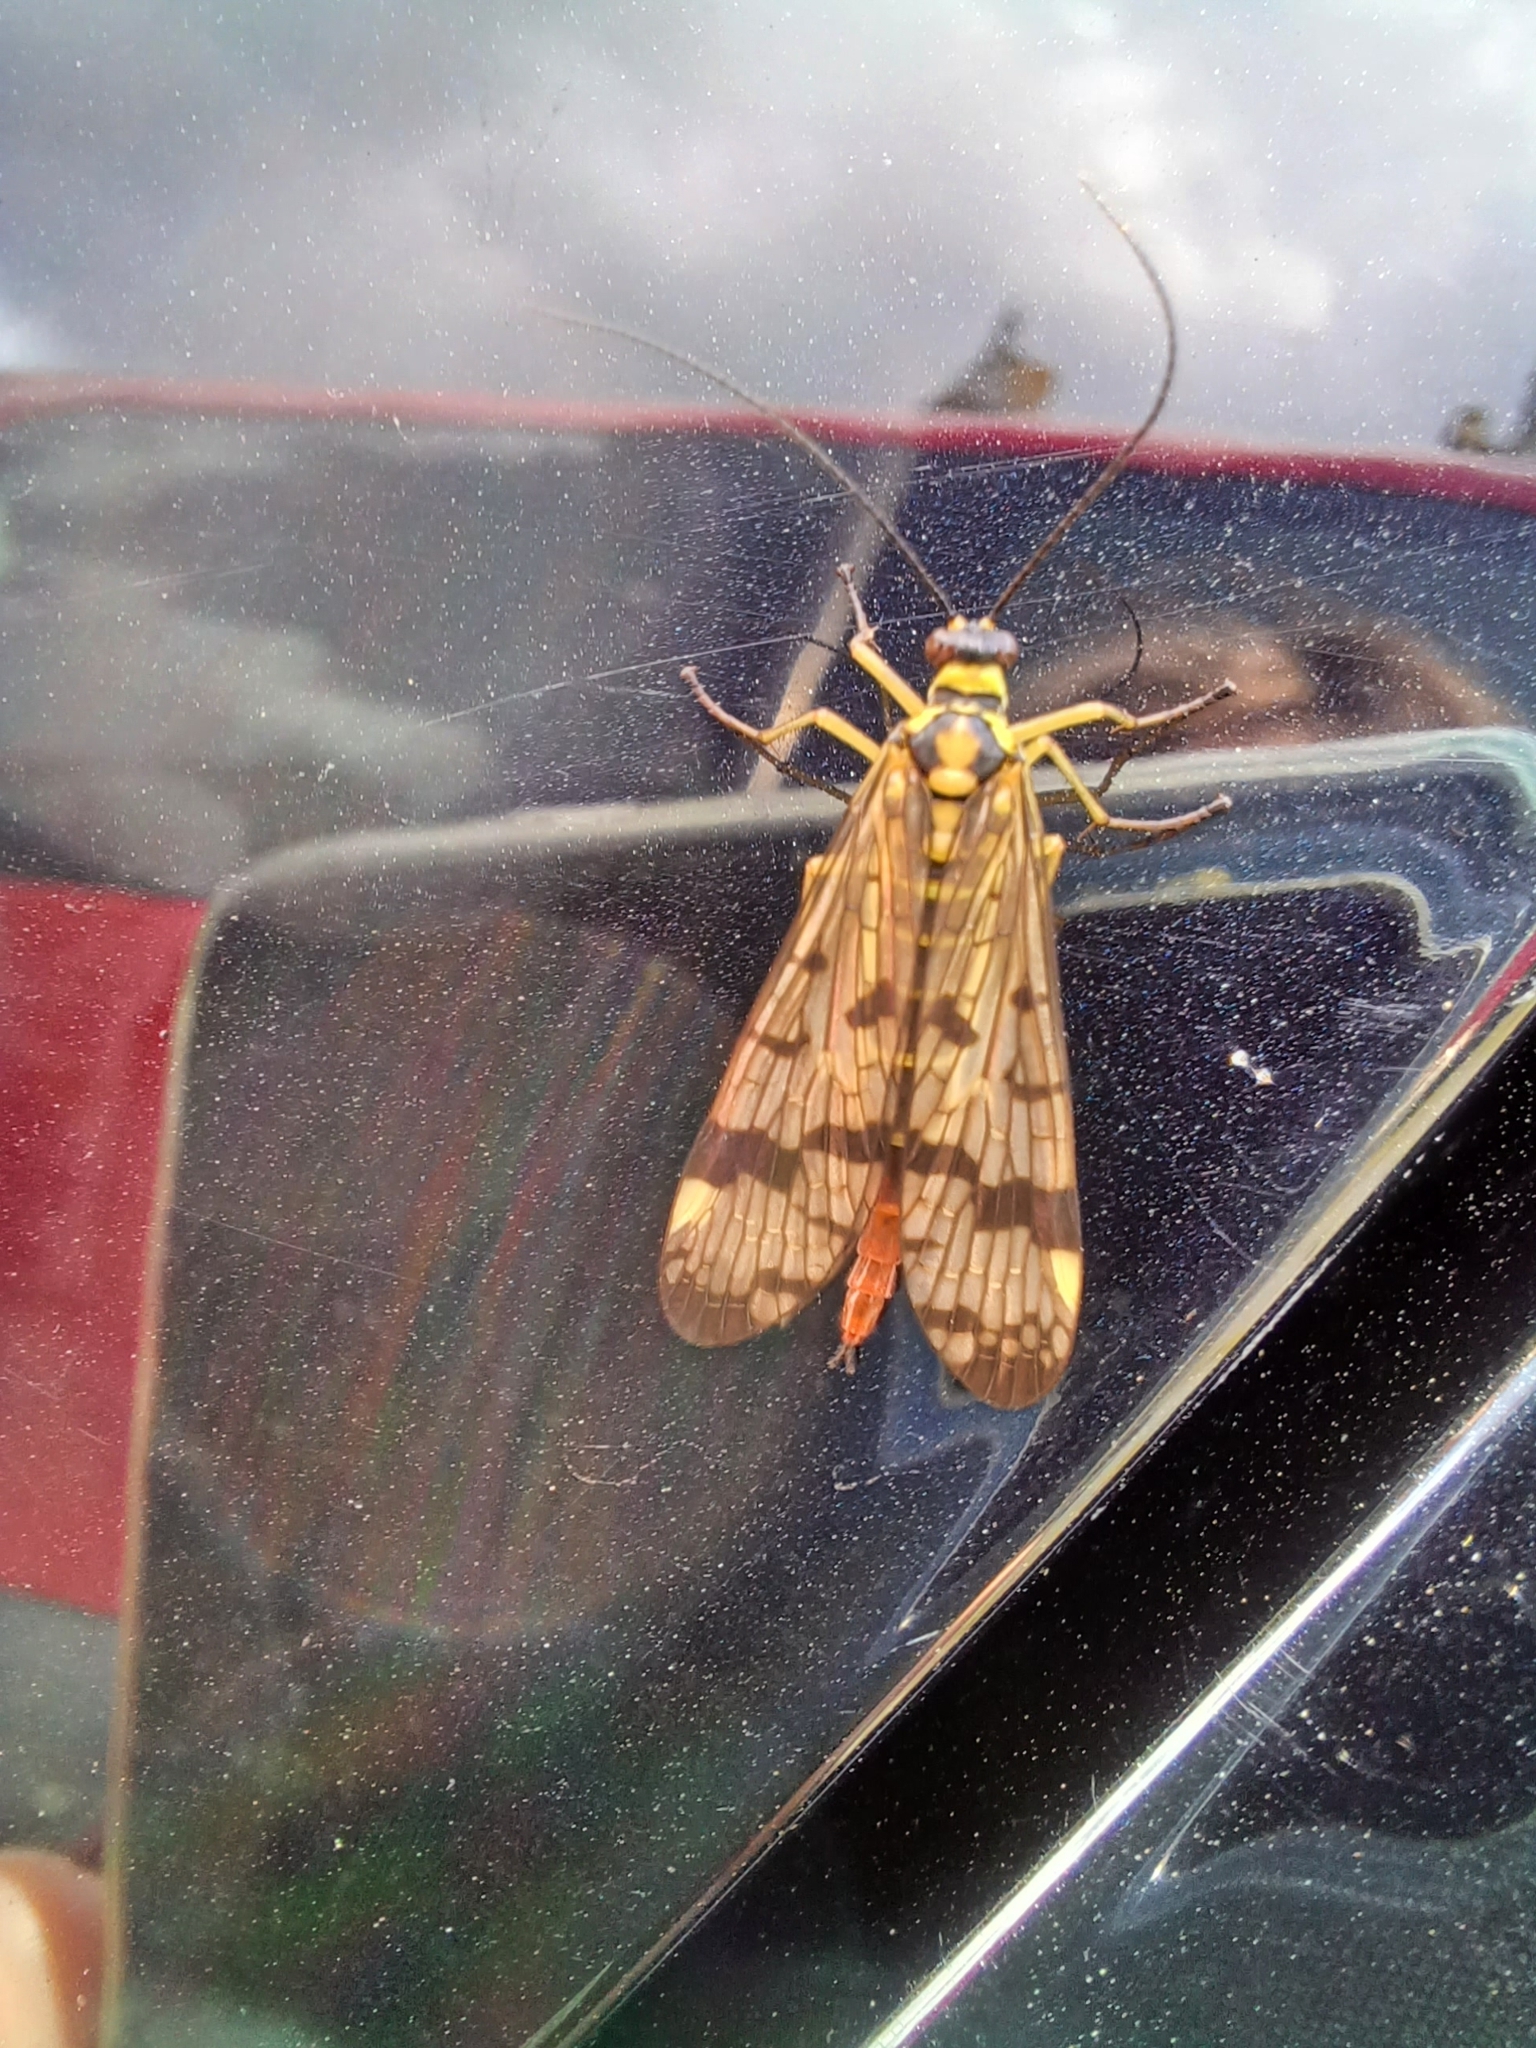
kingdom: Animalia
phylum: Arthropoda
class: Insecta
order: Mecoptera
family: Panorpidae
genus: Panorpa
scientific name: Panorpa communis
